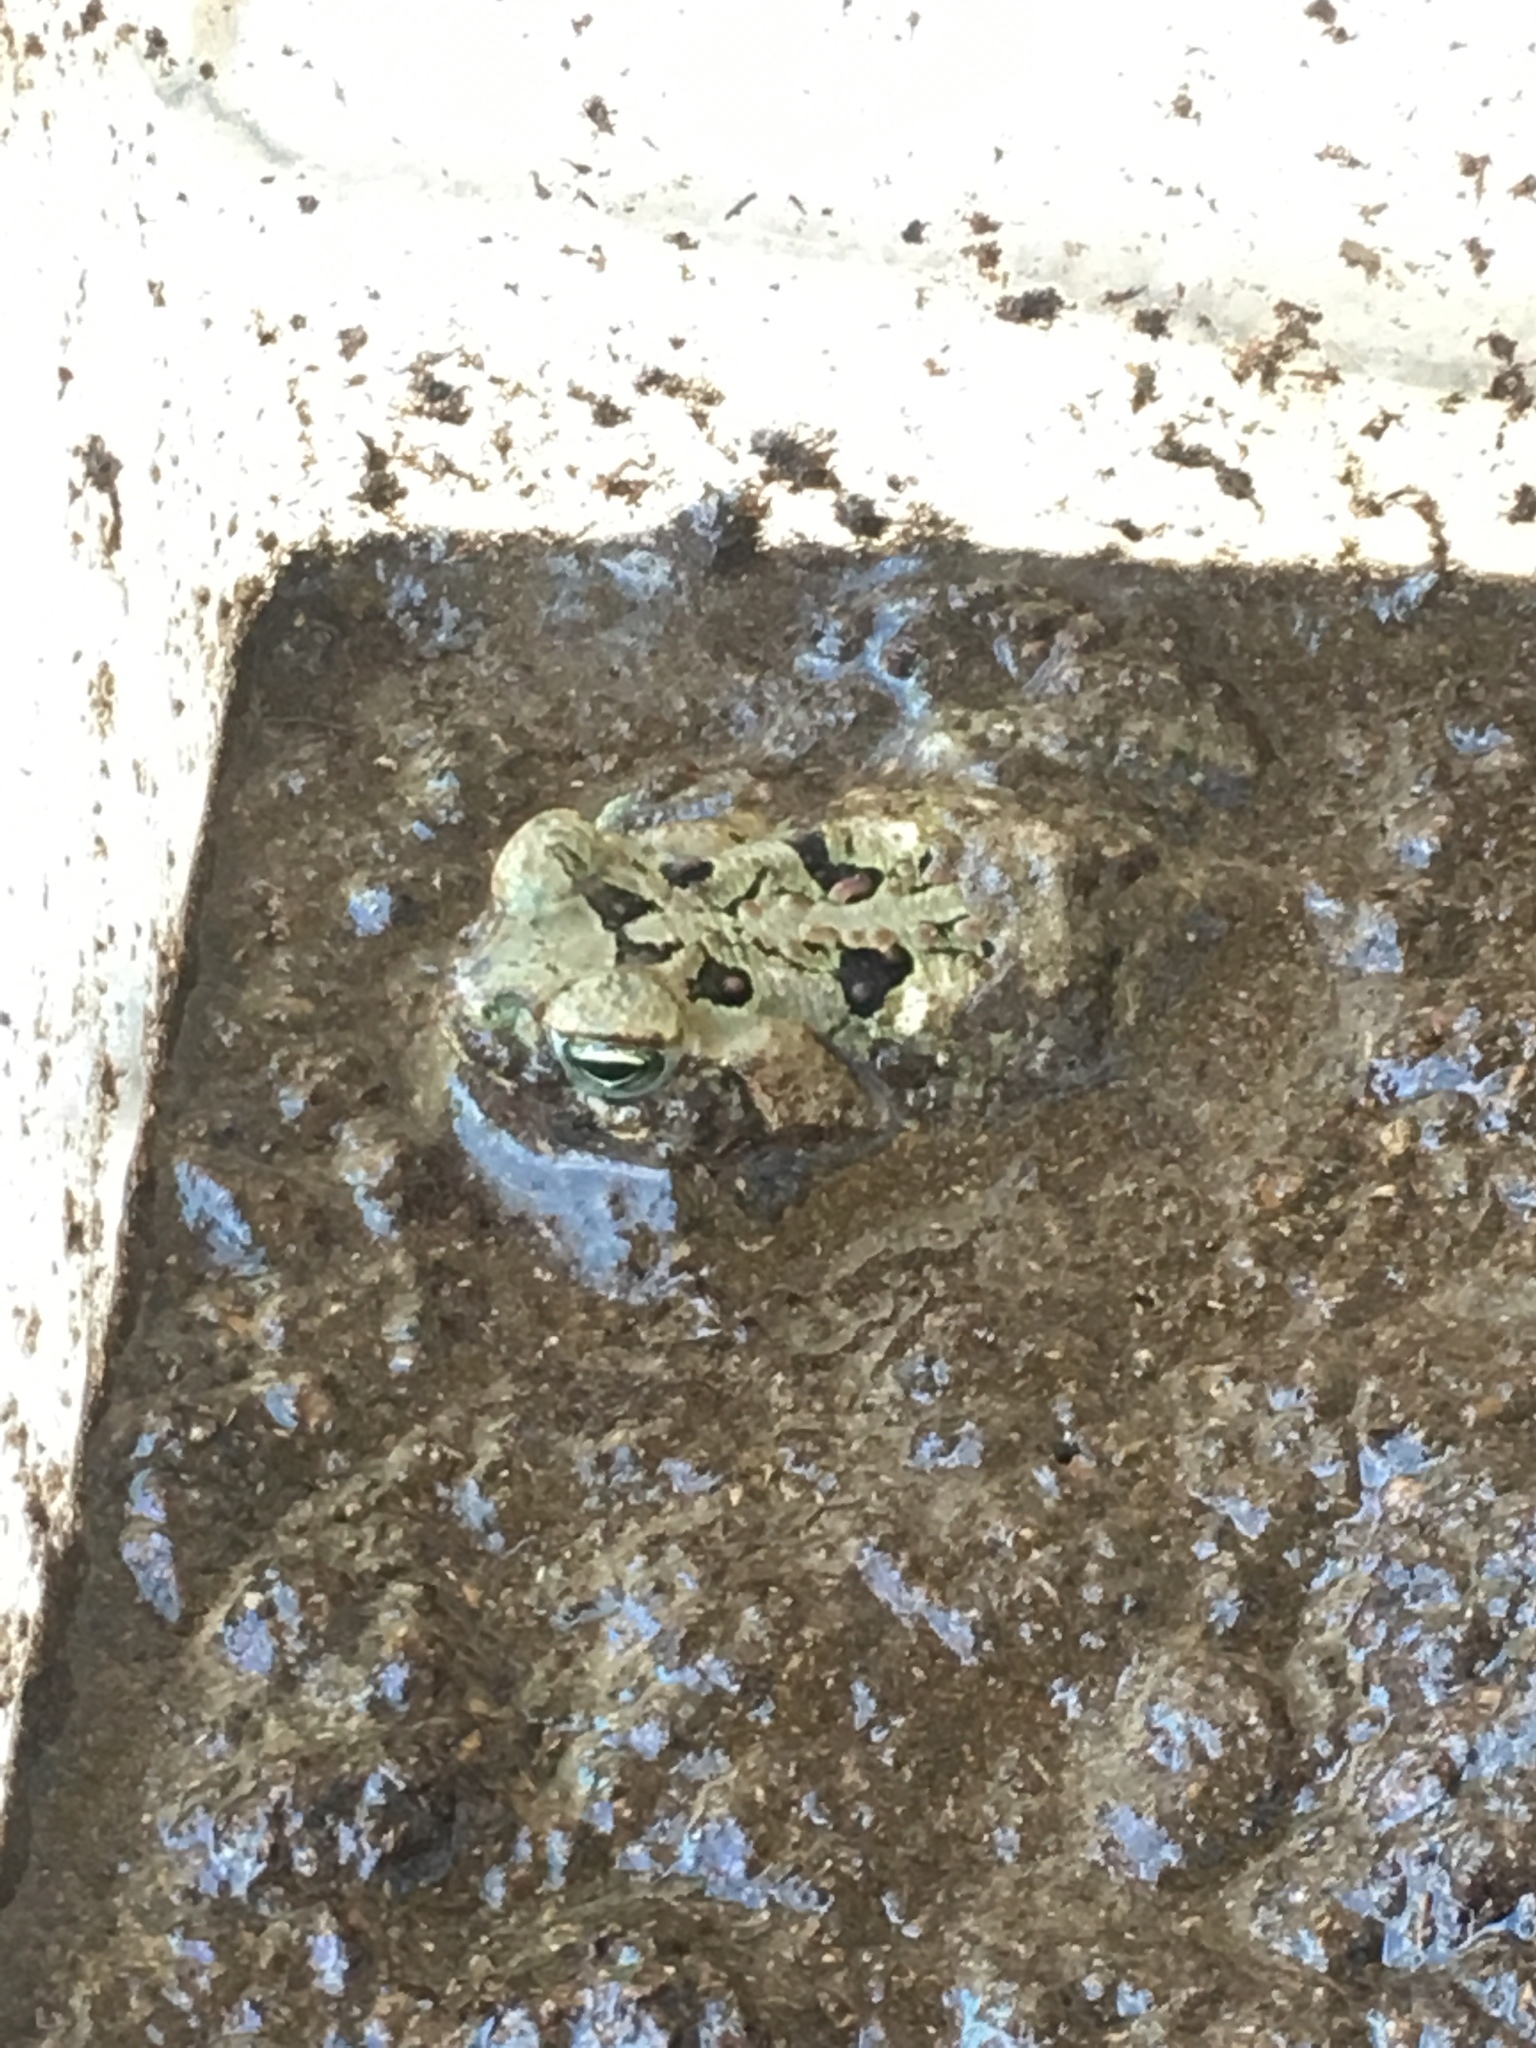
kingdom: Animalia
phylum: Chordata
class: Amphibia
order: Anura
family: Bufonidae
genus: Rhinella
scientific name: Rhinella marina
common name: Cane toad
